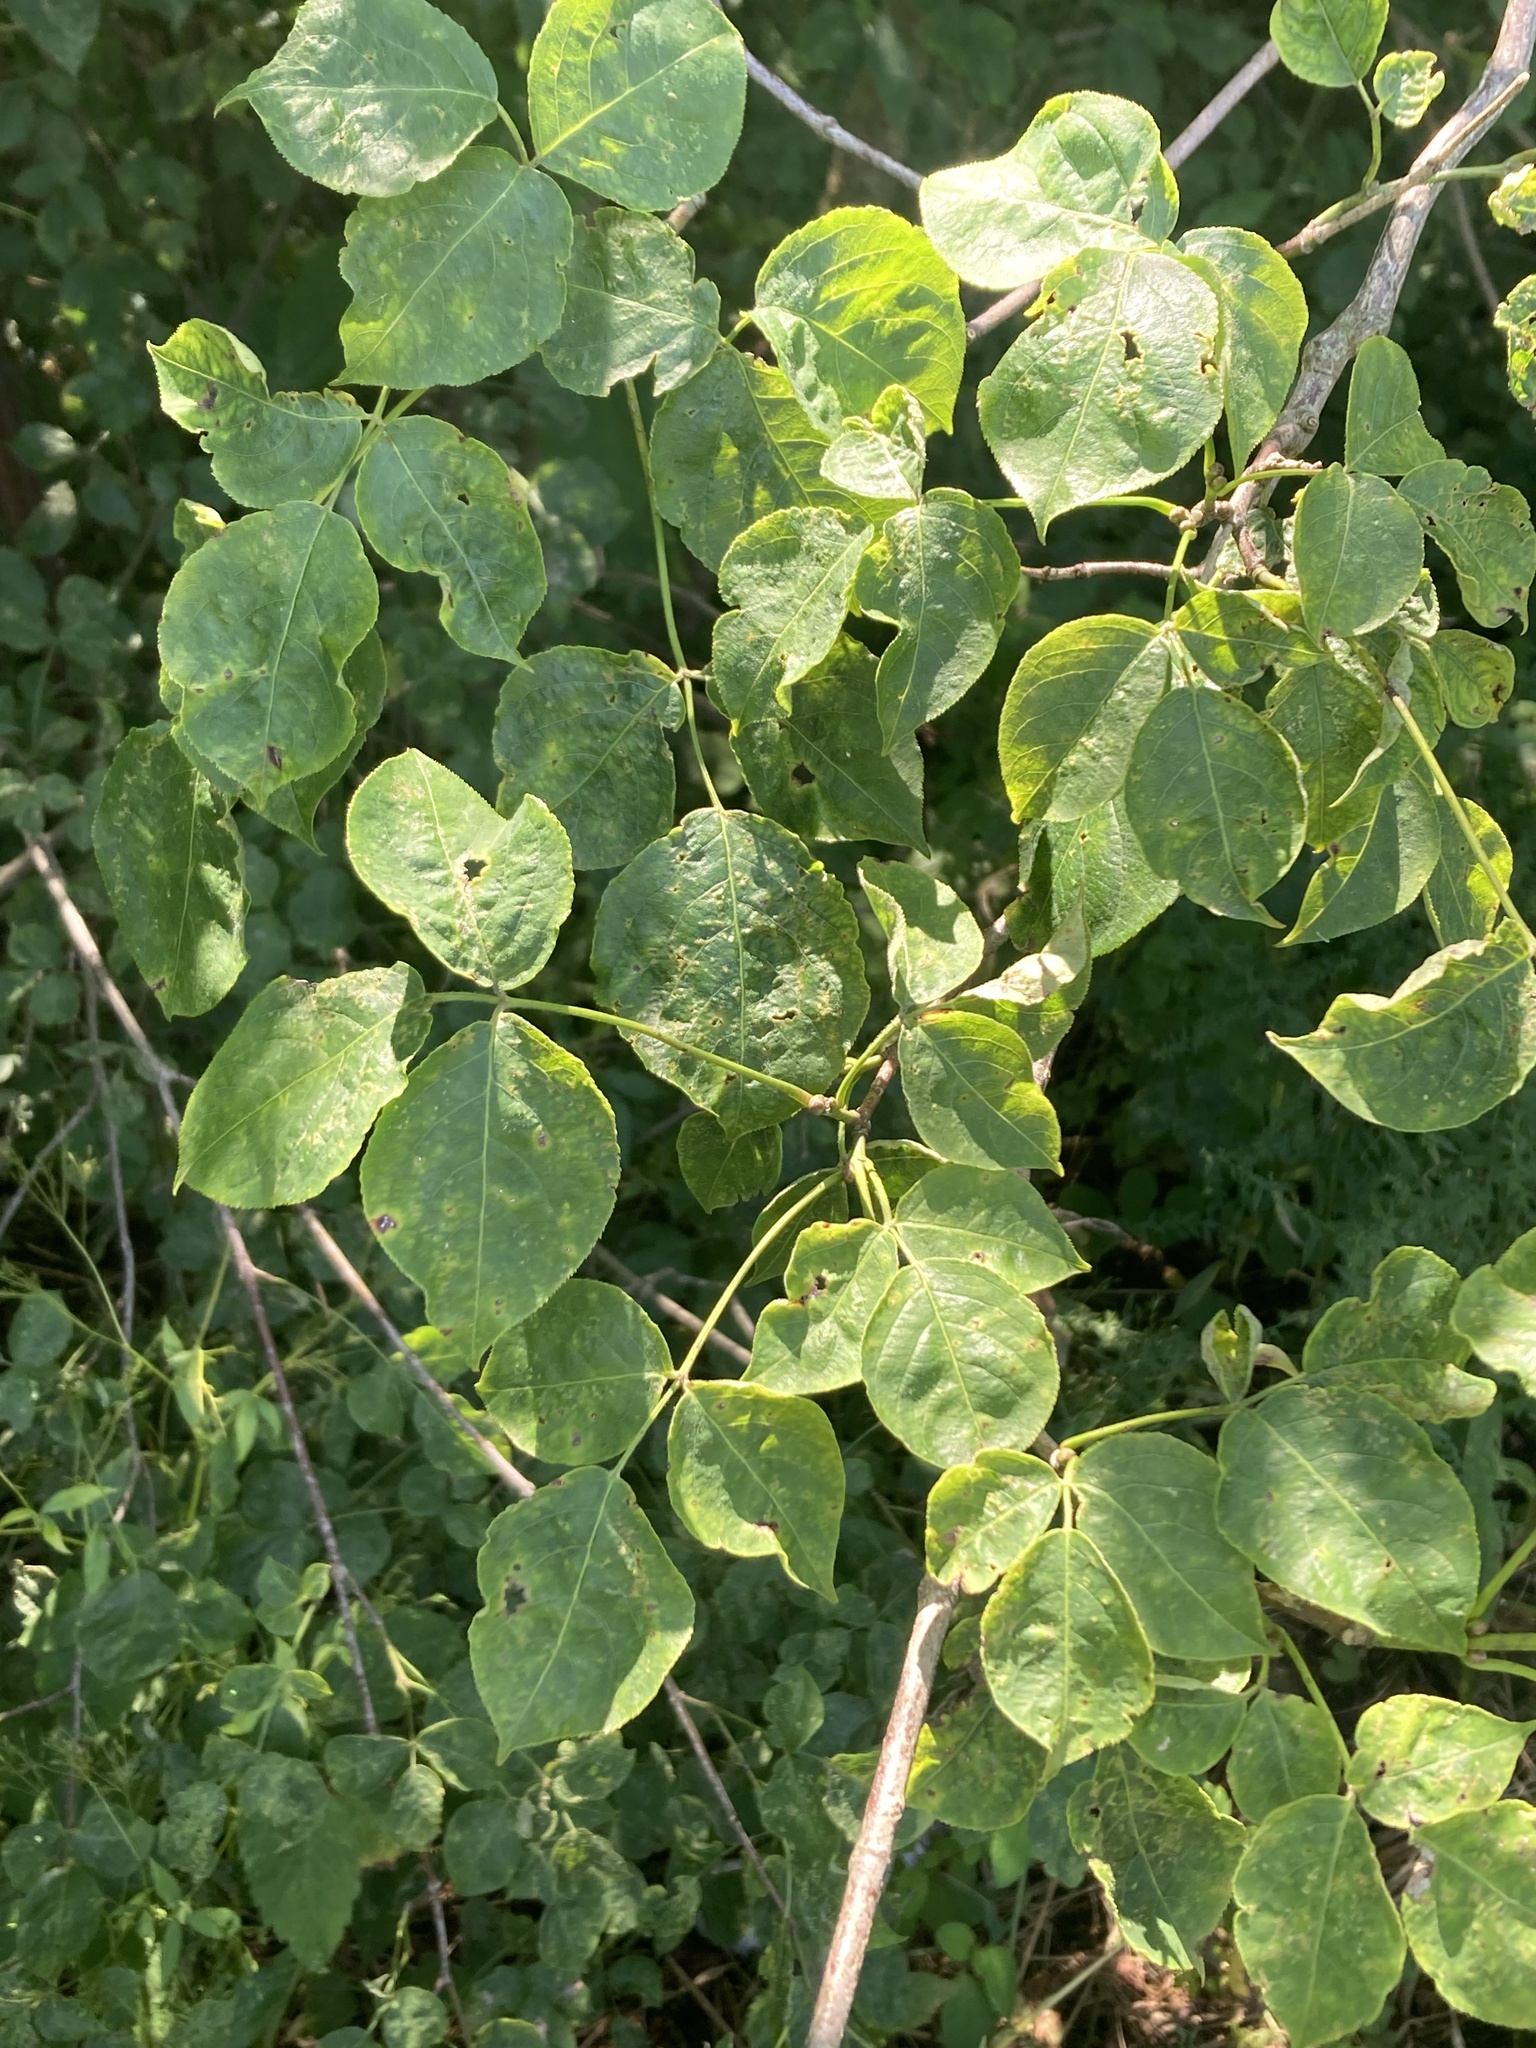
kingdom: Plantae
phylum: Tracheophyta
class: Magnoliopsida
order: Crossosomatales
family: Staphyleaceae
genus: Staphylea
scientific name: Staphylea trifolia
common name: American bladdernut
